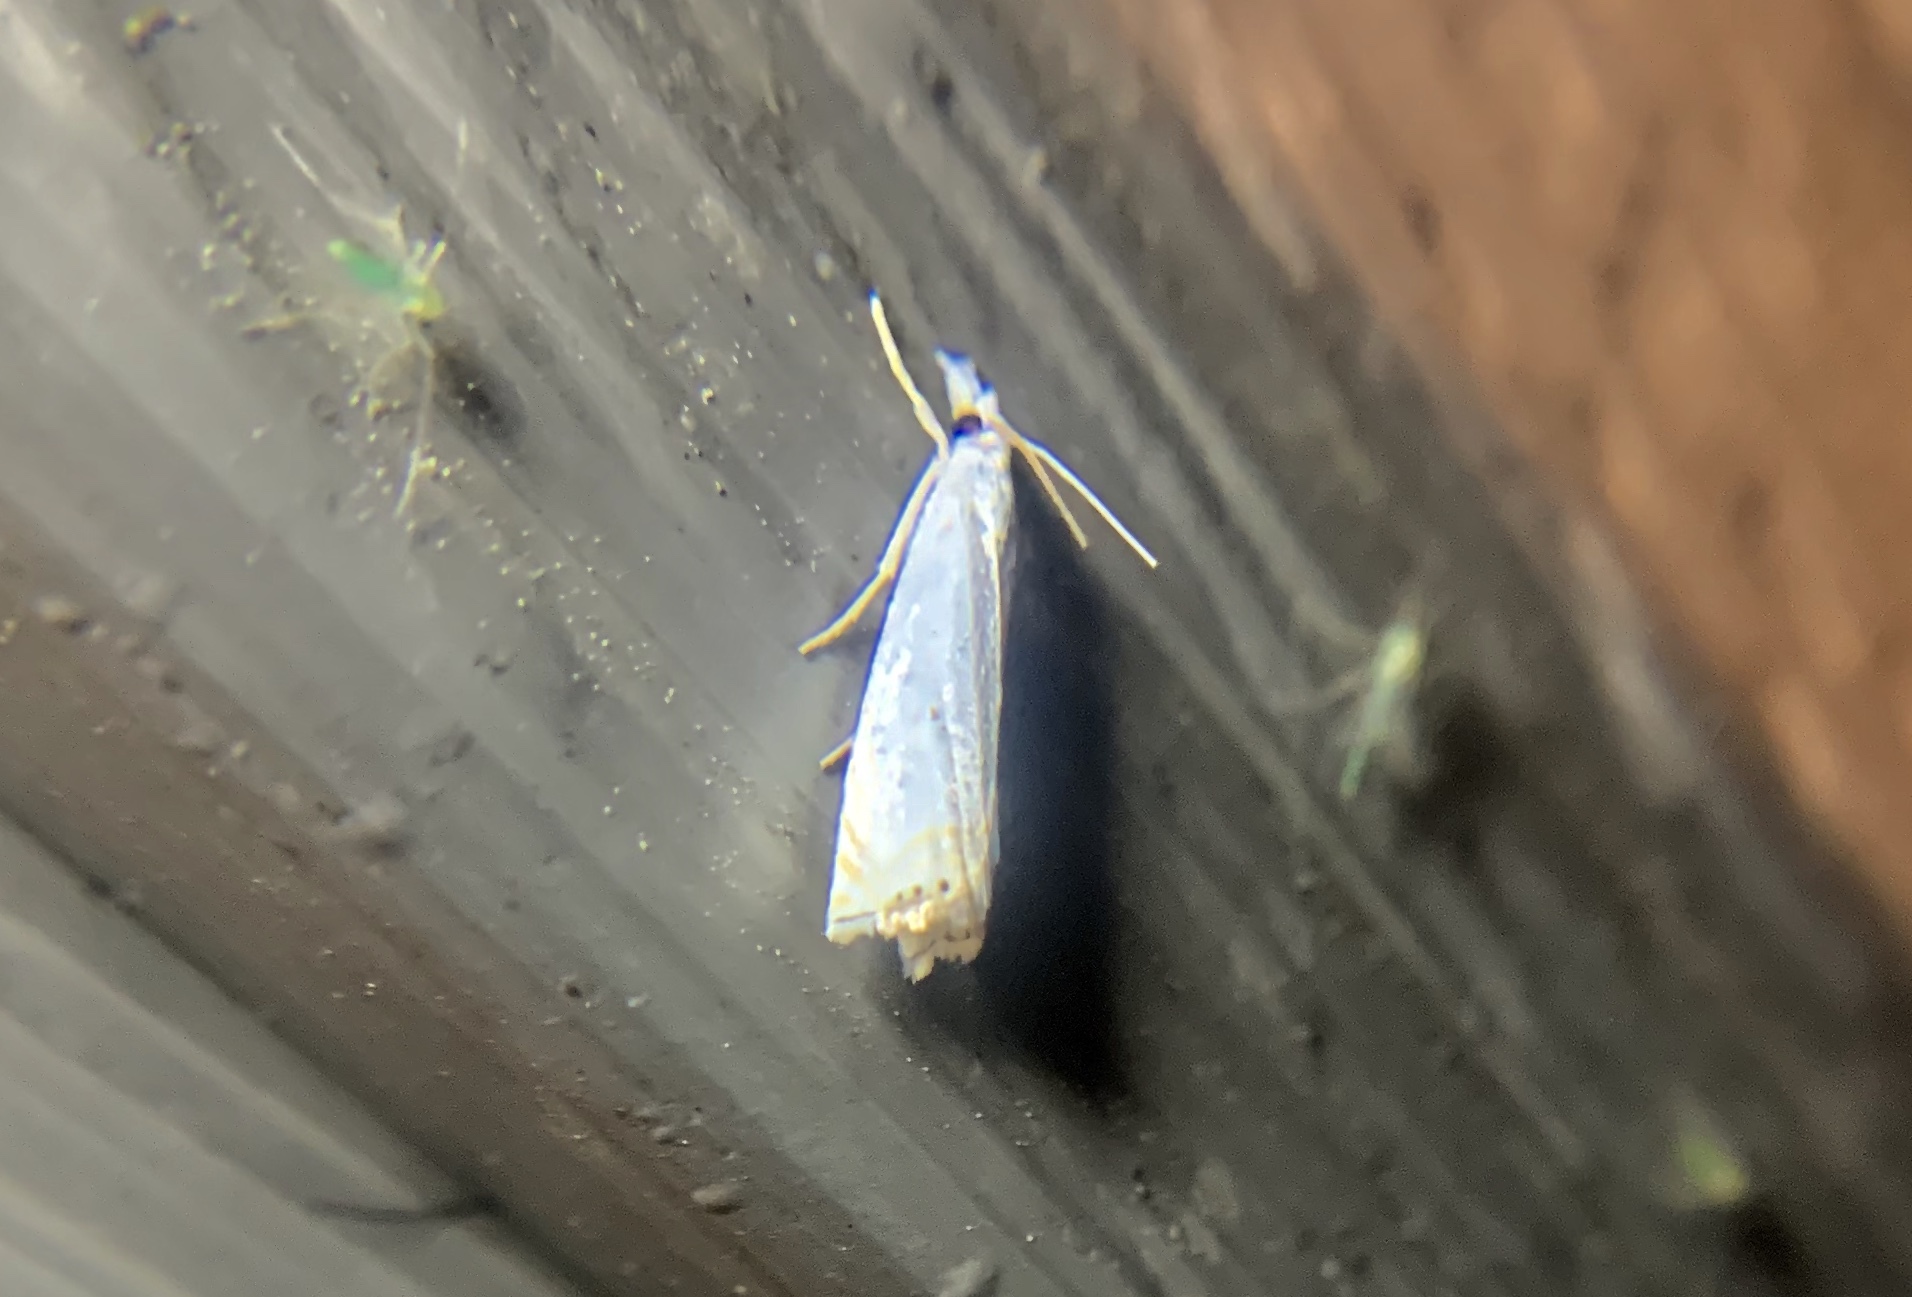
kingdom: Animalia
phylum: Arthropoda
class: Insecta
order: Lepidoptera
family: Crambidae
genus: Crambus
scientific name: Crambus albellus
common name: Small white grass-veneer
